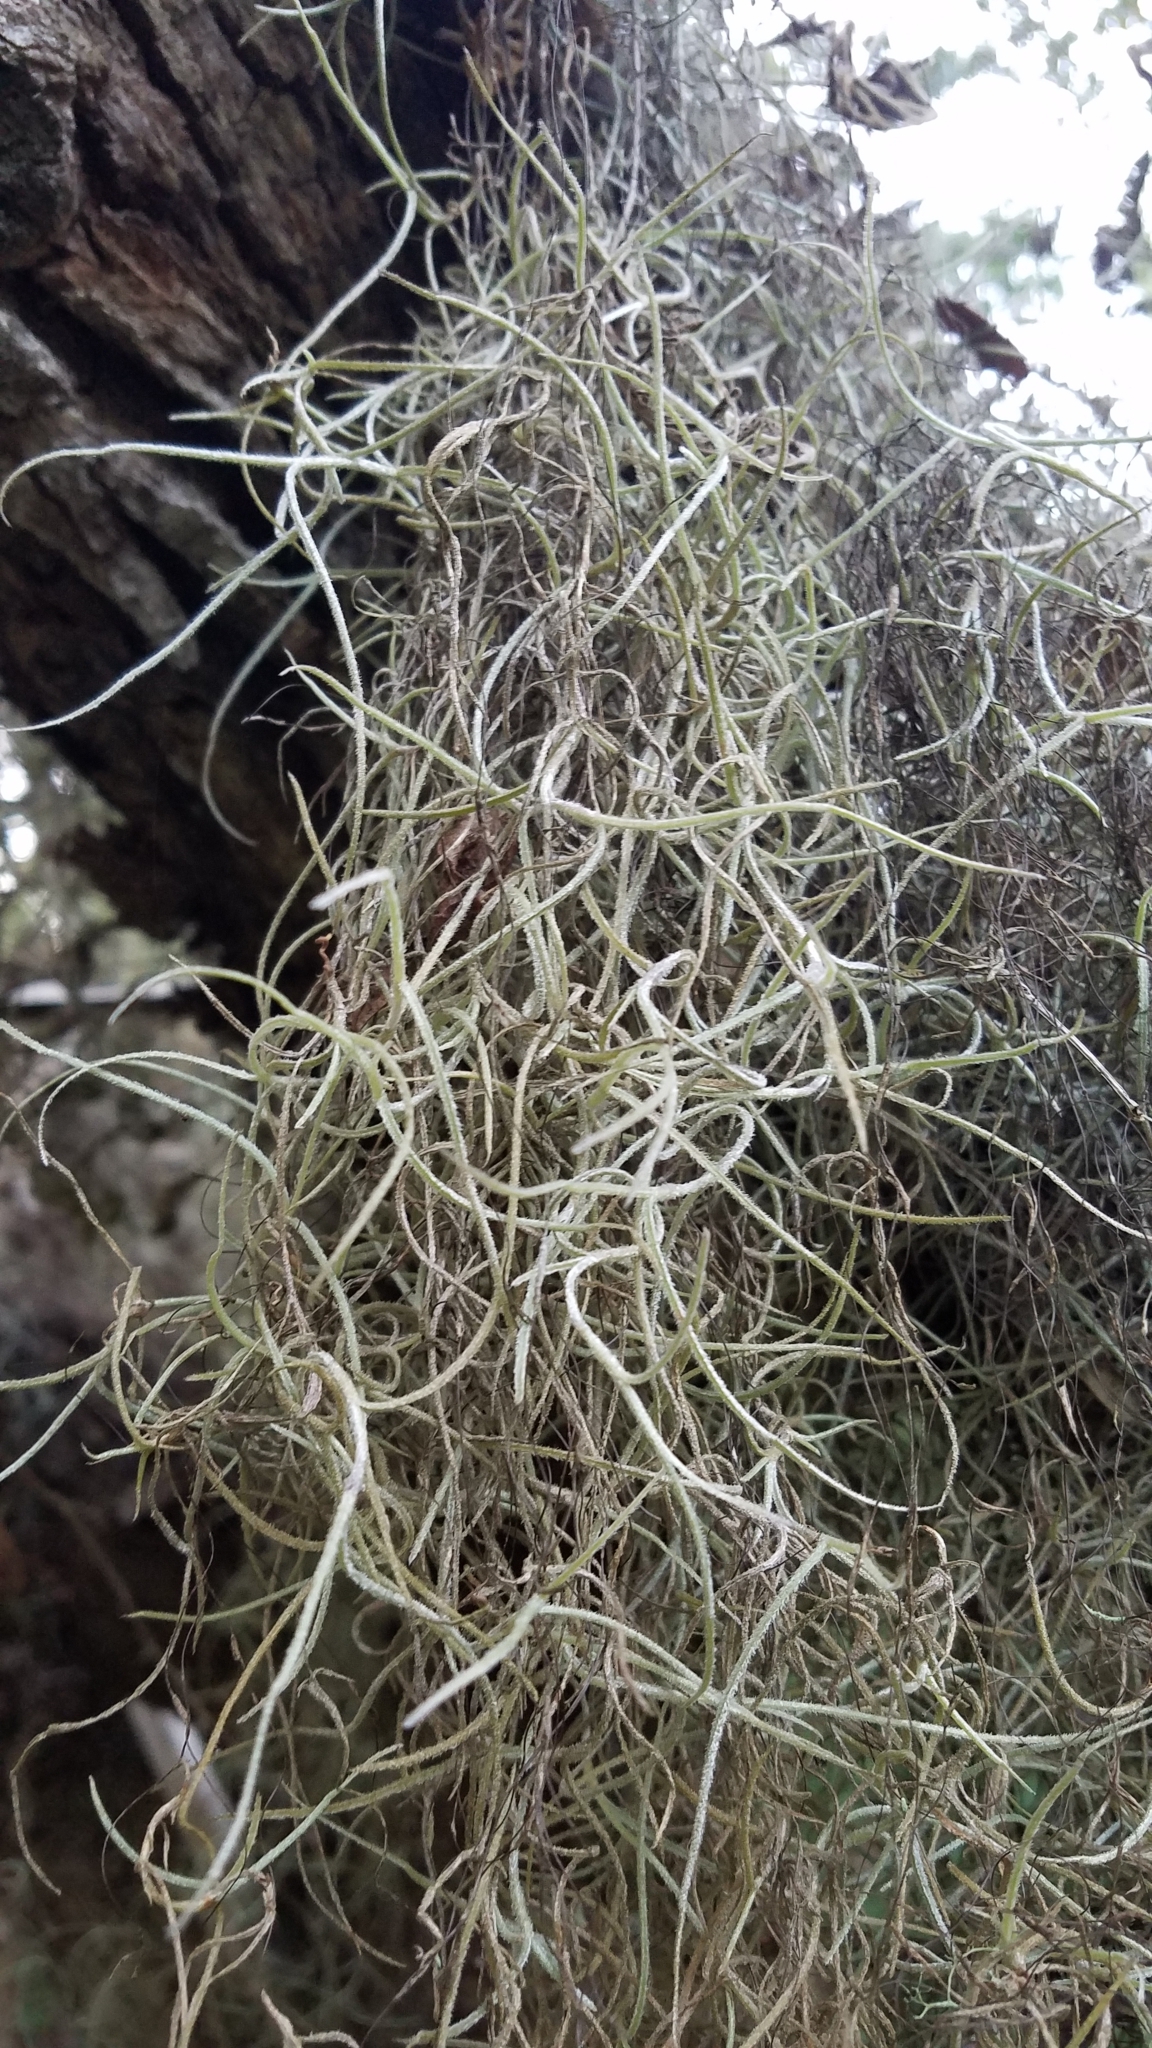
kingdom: Plantae
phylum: Tracheophyta
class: Liliopsida
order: Poales
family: Bromeliaceae
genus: Tillandsia
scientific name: Tillandsia usneoides
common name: Spanish moss
